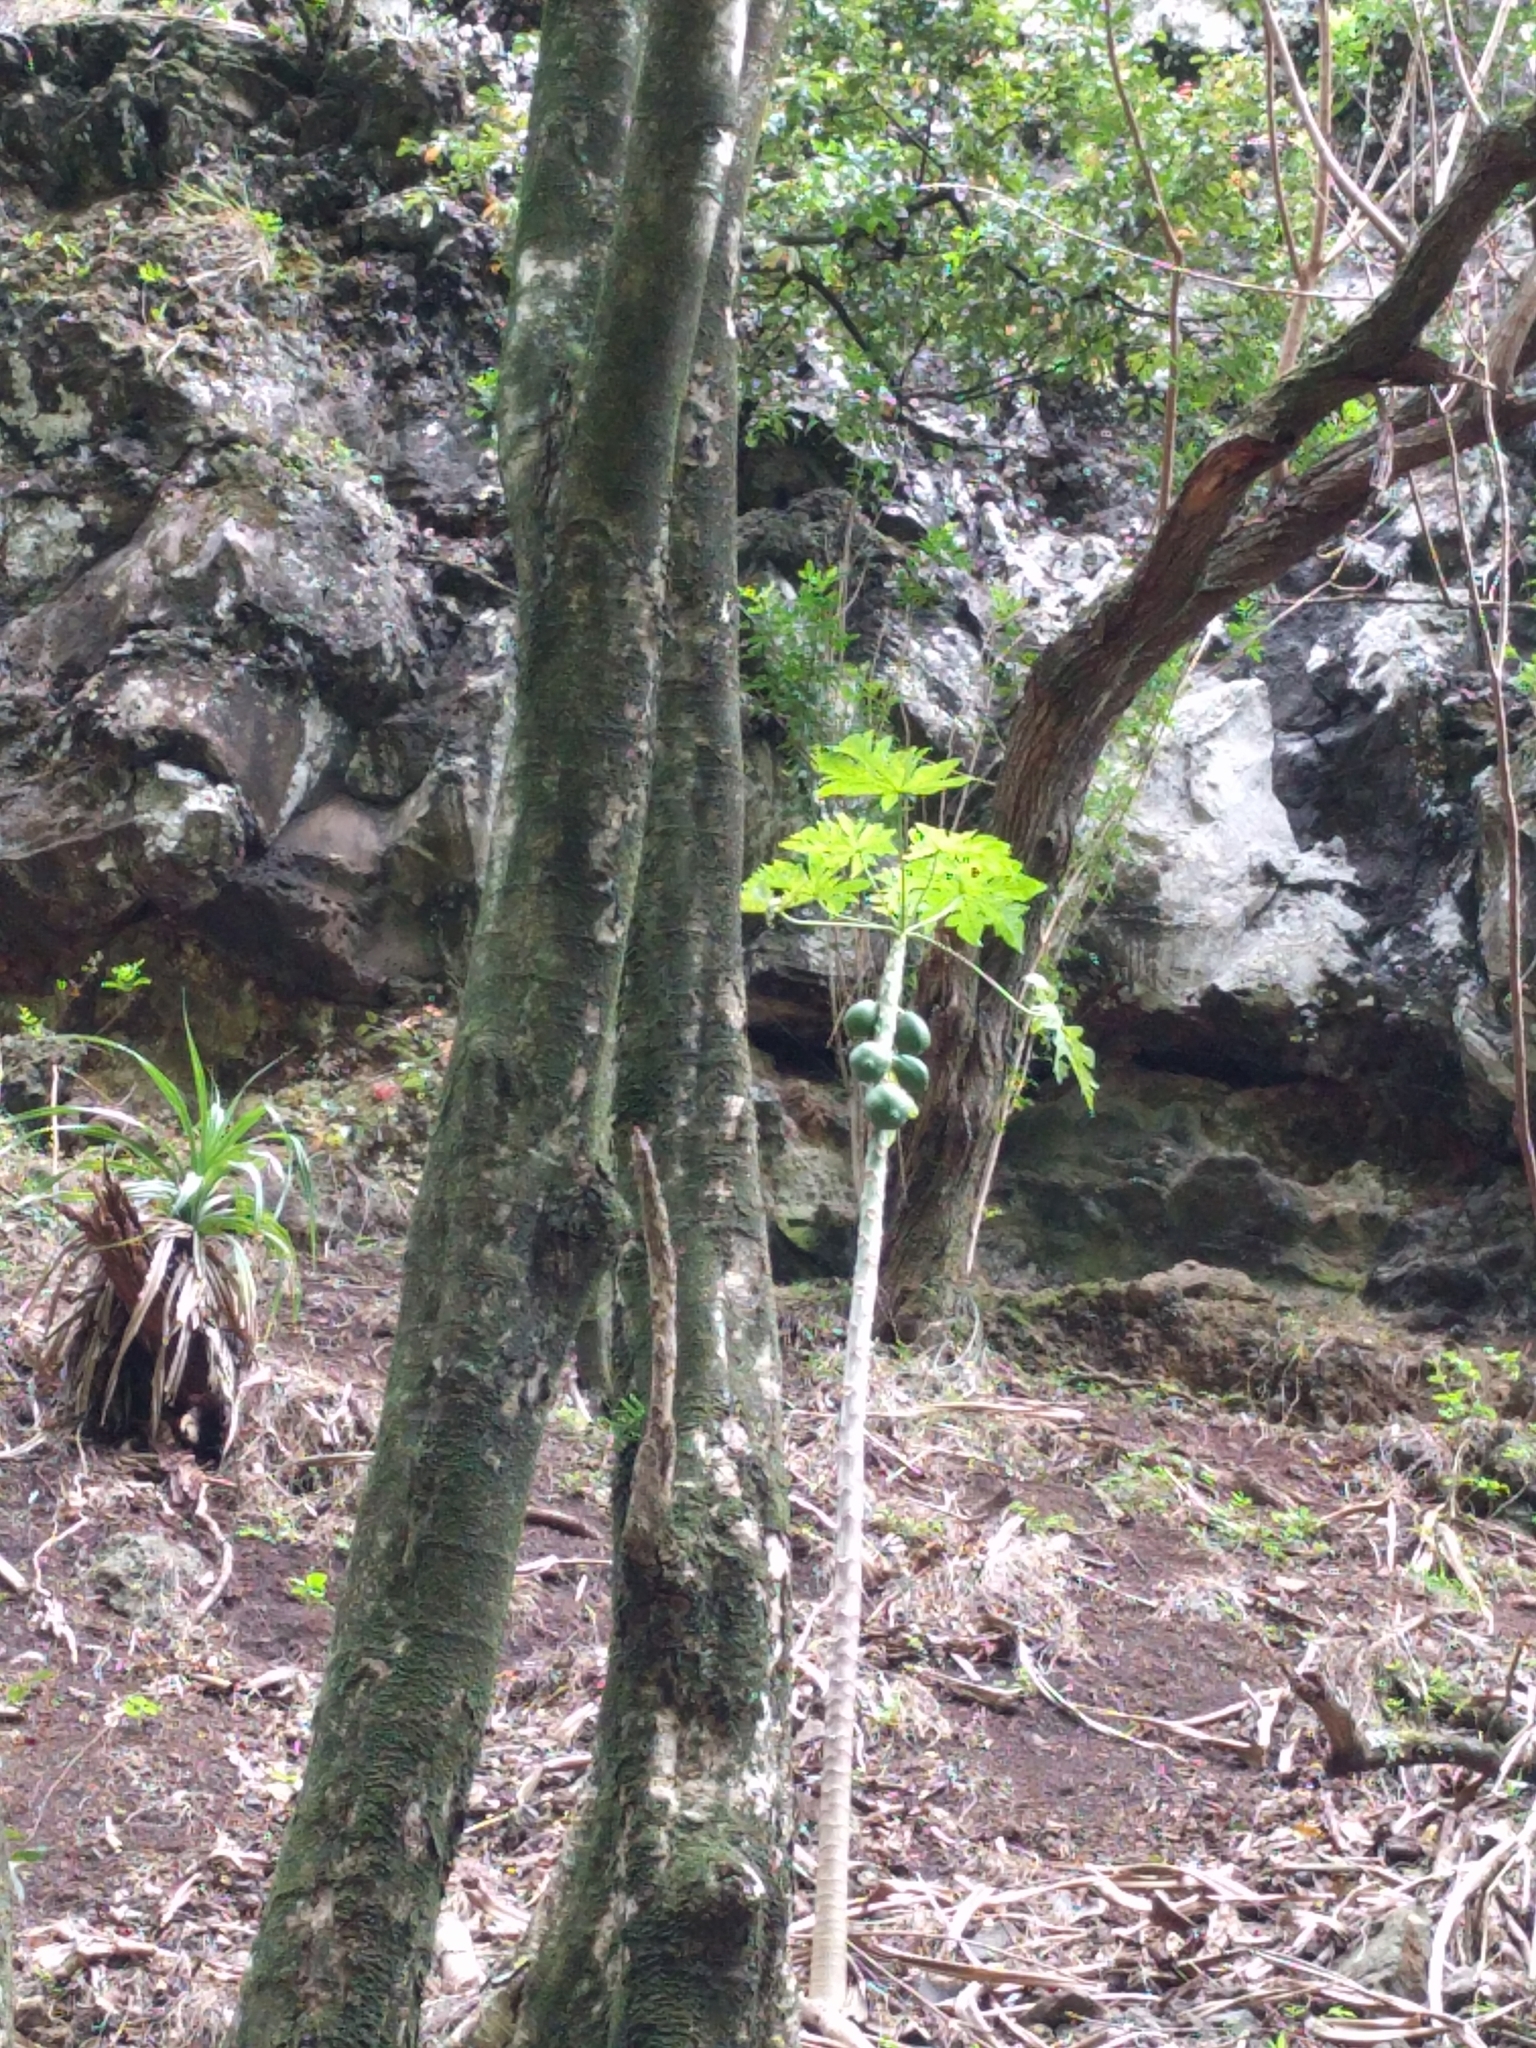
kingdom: Plantae
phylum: Tracheophyta
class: Magnoliopsida
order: Brassicales
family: Caricaceae
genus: Carica
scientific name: Carica papaya
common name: Papaya
